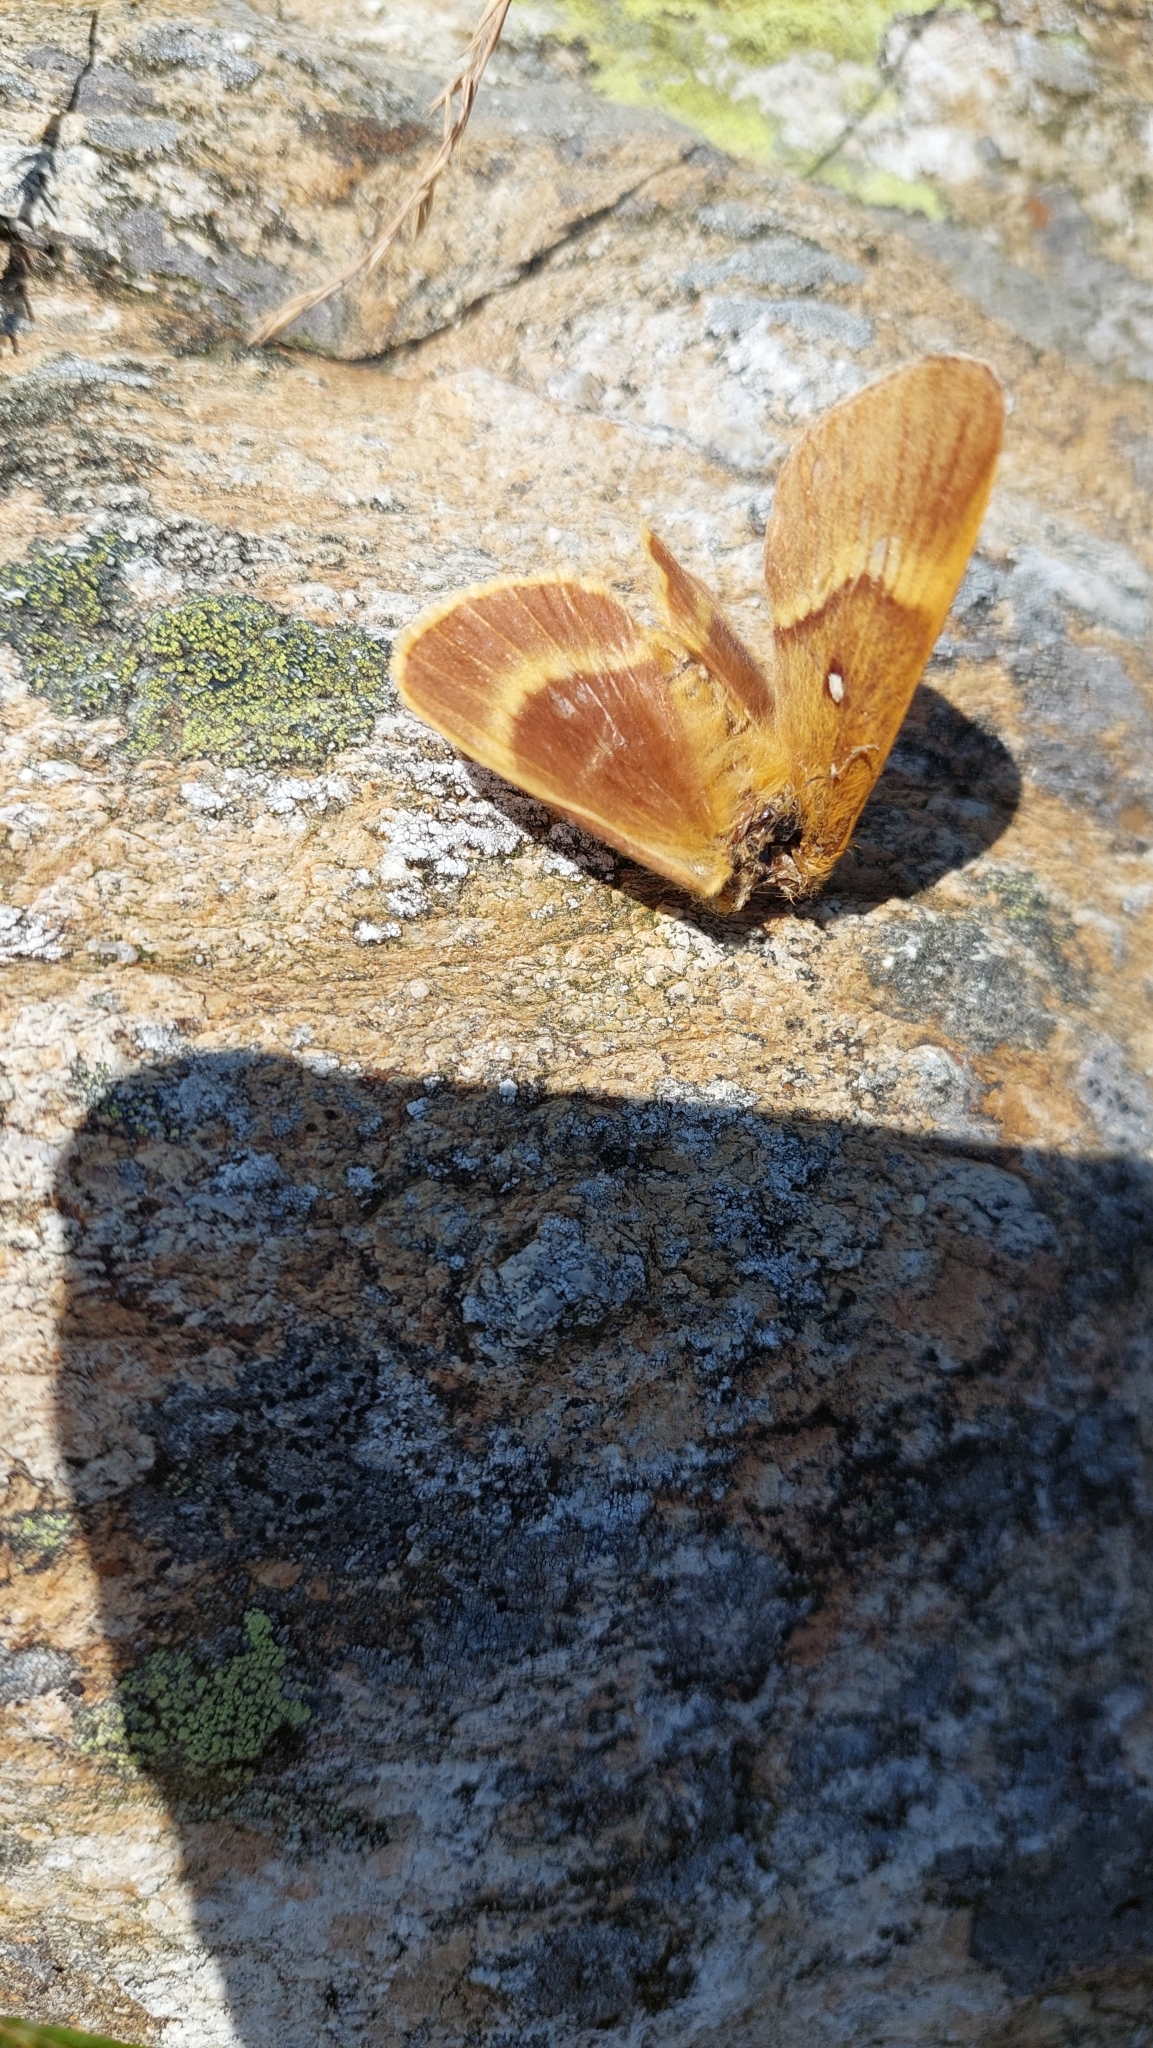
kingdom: Animalia
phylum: Arthropoda
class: Insecta
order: Lepidoptera
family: Lasiocampidae
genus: Lasiocampa
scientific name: Lasiocampa quercus
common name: Oak eggar
